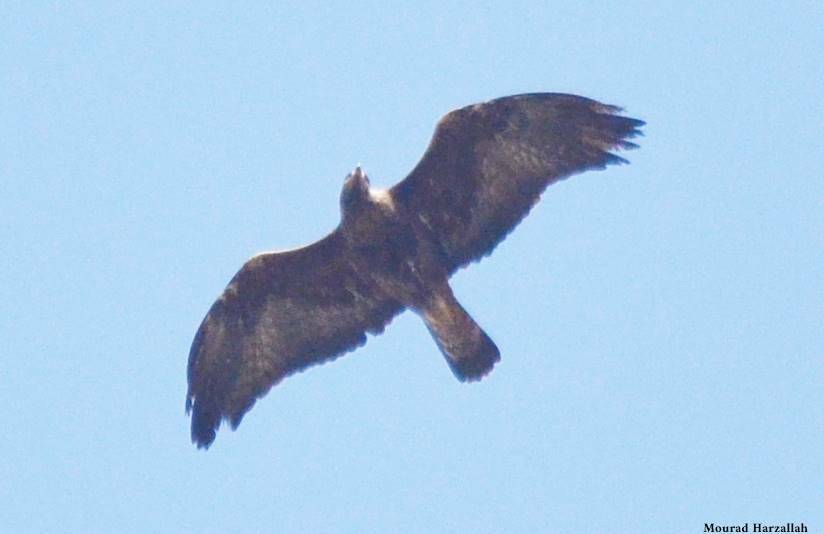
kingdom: Animalia
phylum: Chordata
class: Aves
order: Accipitriformes
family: Accipitridae
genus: Aquila
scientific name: Aquila chrysaetos
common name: Golden eagle
